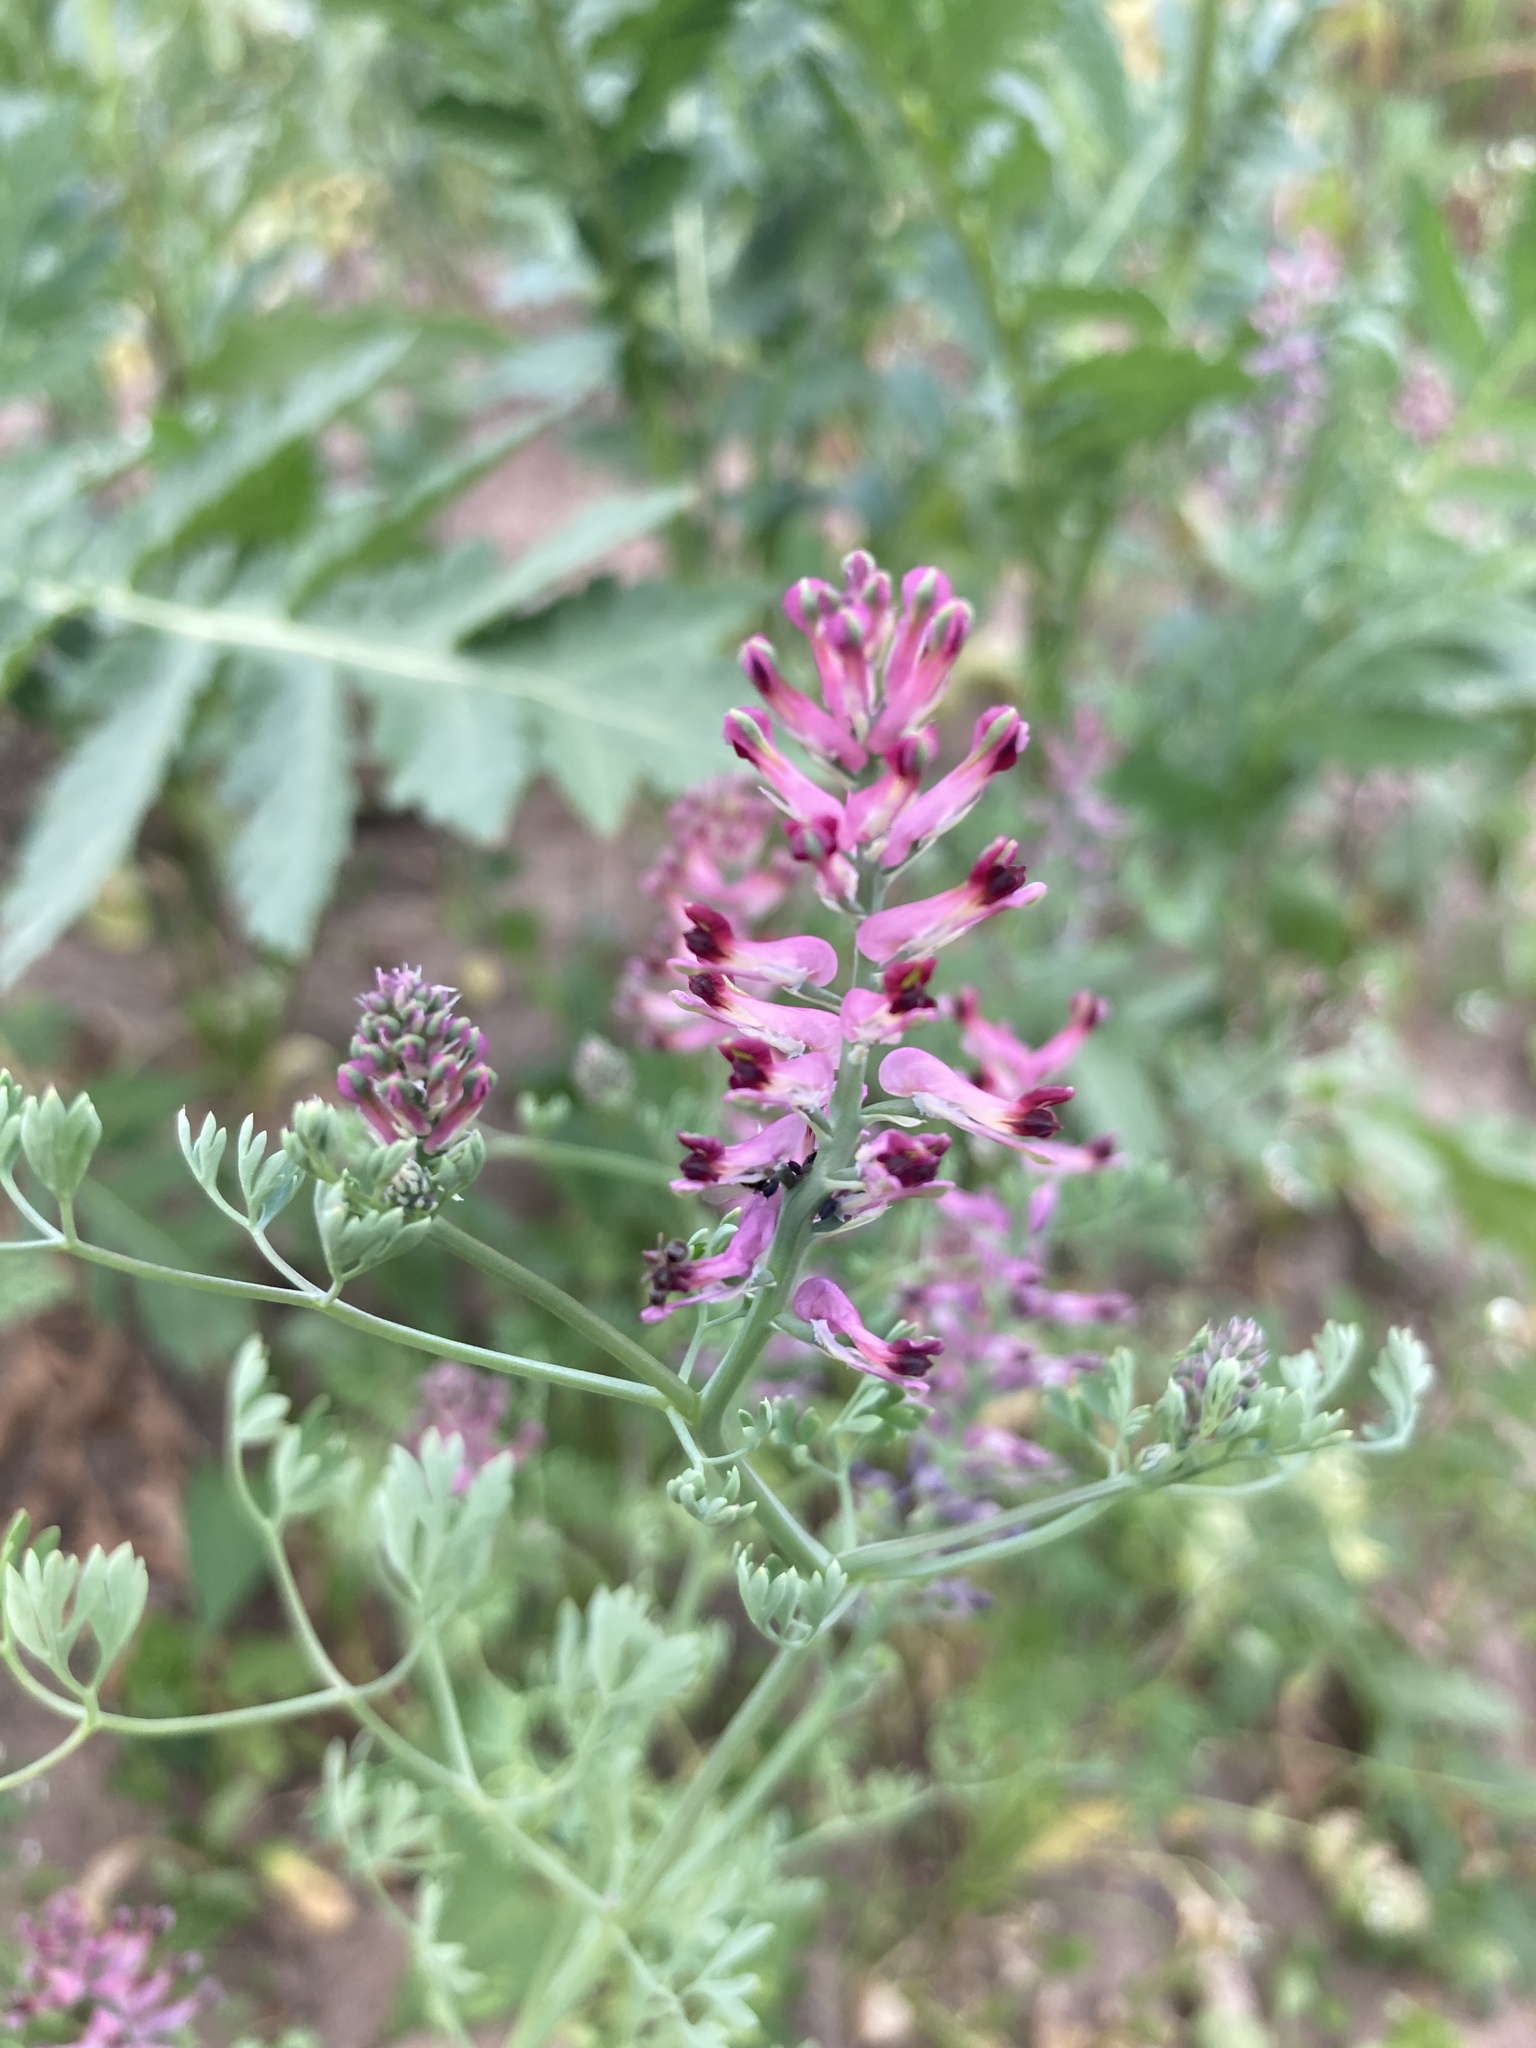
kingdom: Plantae
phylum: Tracheophyta
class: Magnoliopsida
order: Ranunculales
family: Papaveraceae
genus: Fumaria
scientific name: Fumaria officinalis
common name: Common fumitory
